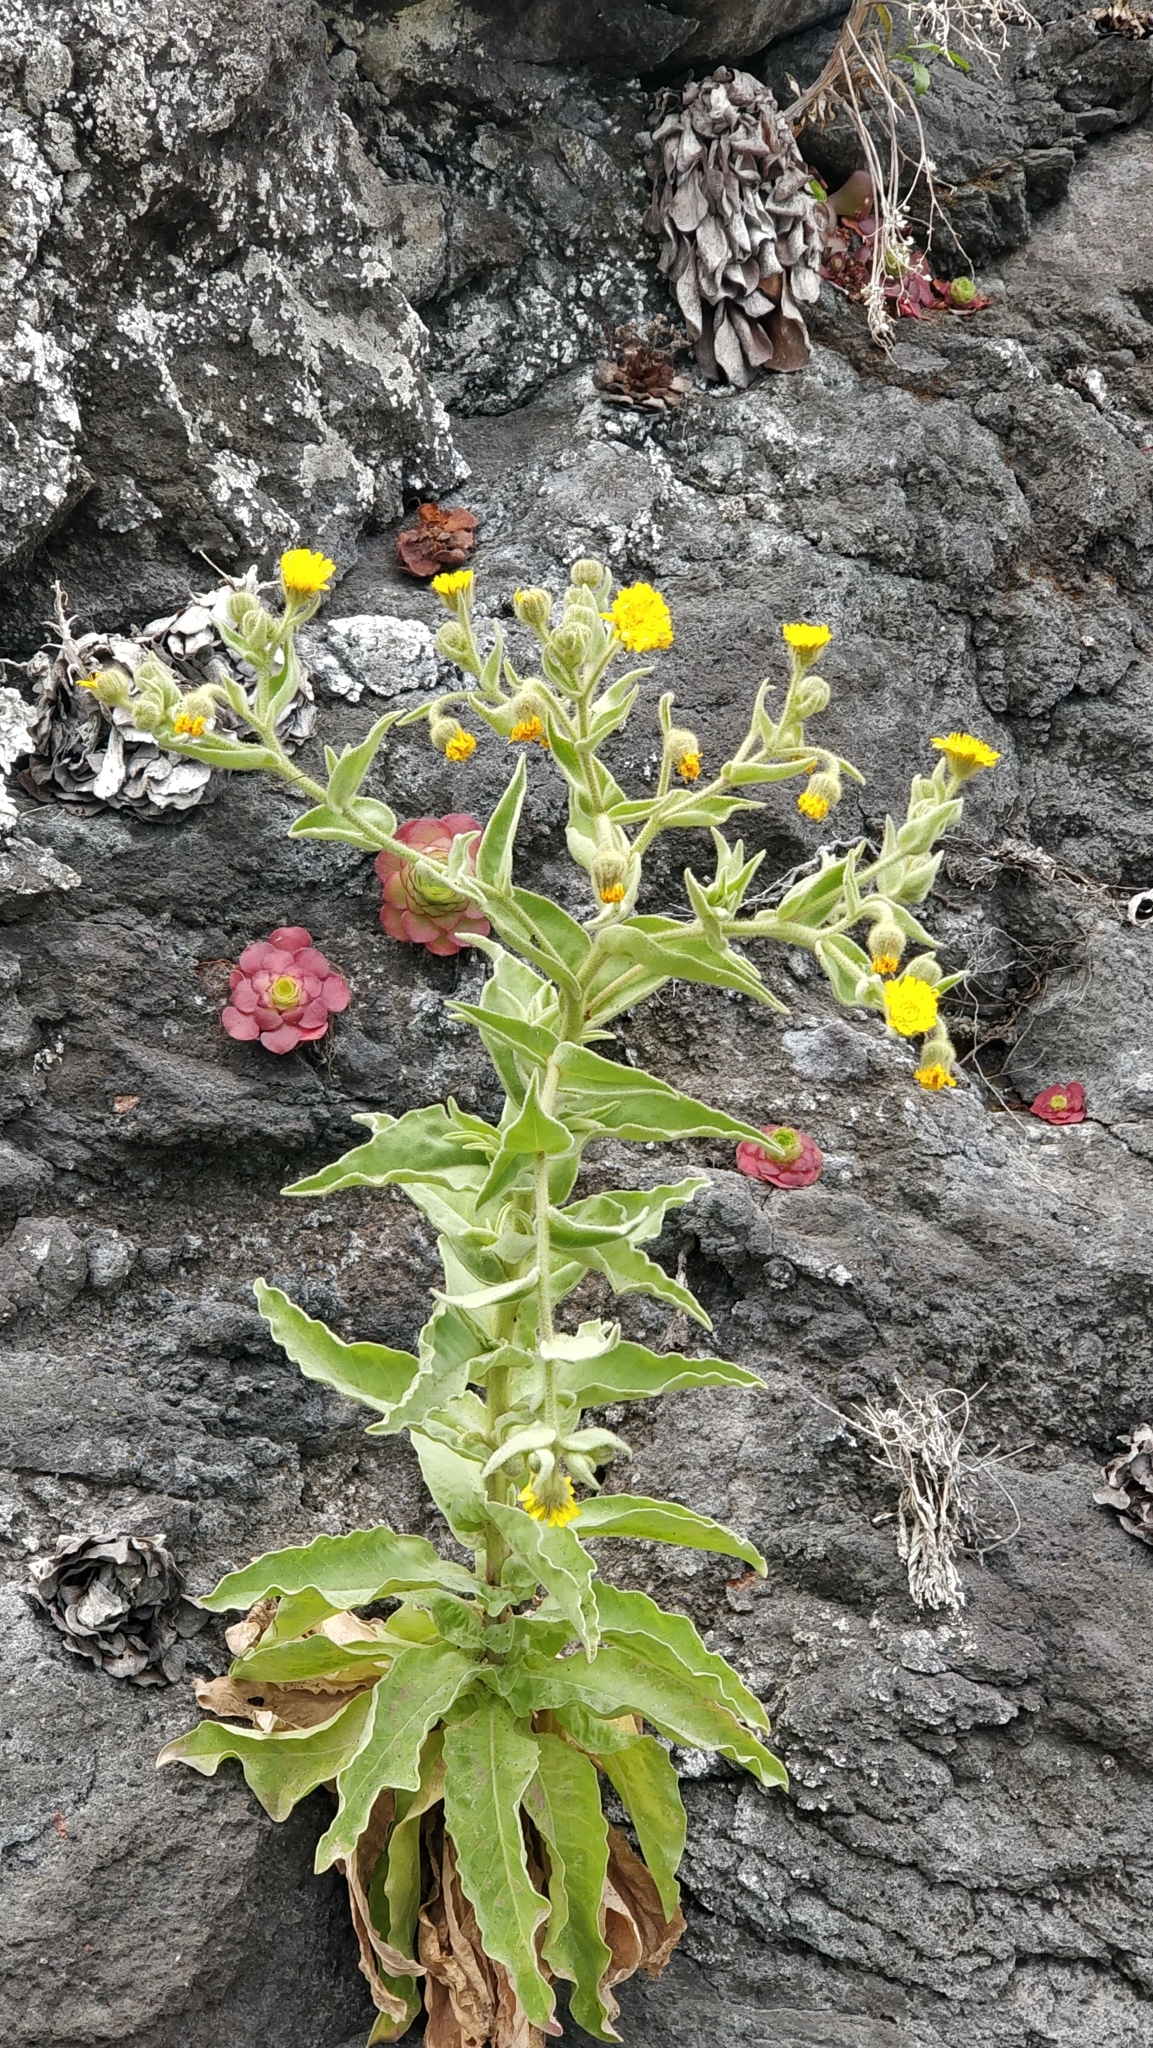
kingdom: Plantae
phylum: Tracheophyta
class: Magnoliopsida
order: Asterales
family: Asteraceae
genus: Andryala
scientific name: Andryala glandulosa
